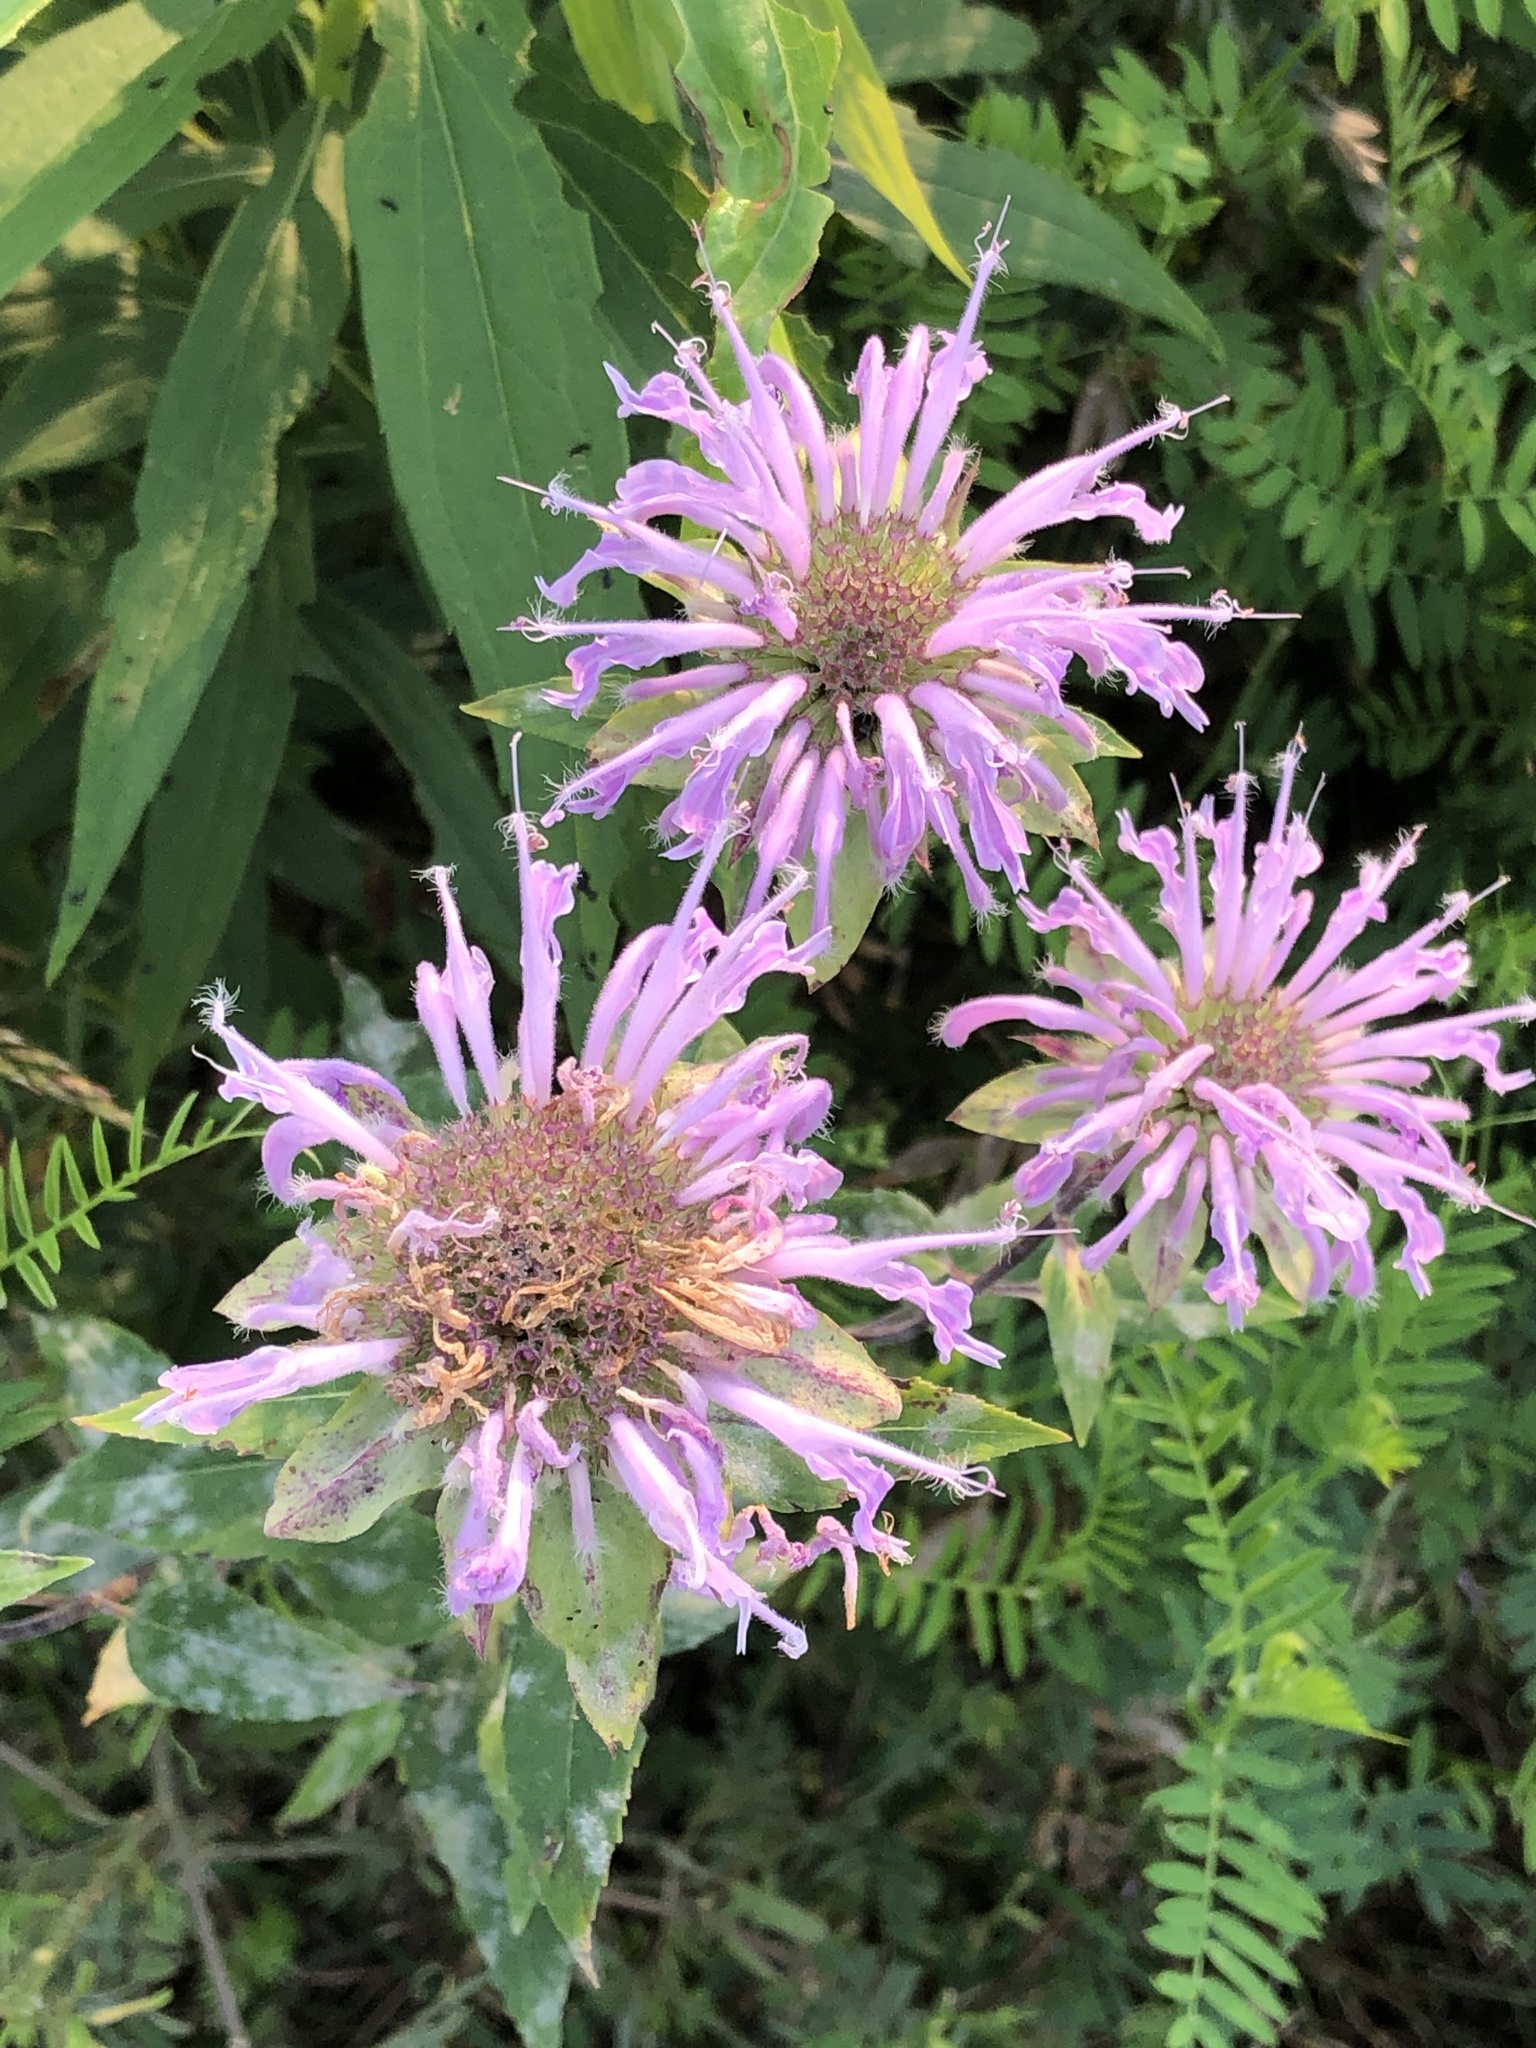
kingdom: Plantae
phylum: Tracheophyta
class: Magnoliopsida
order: Lamiales
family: Lamiaceae
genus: Monarda
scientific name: Monarda fistulosa
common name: Purple beebalm
